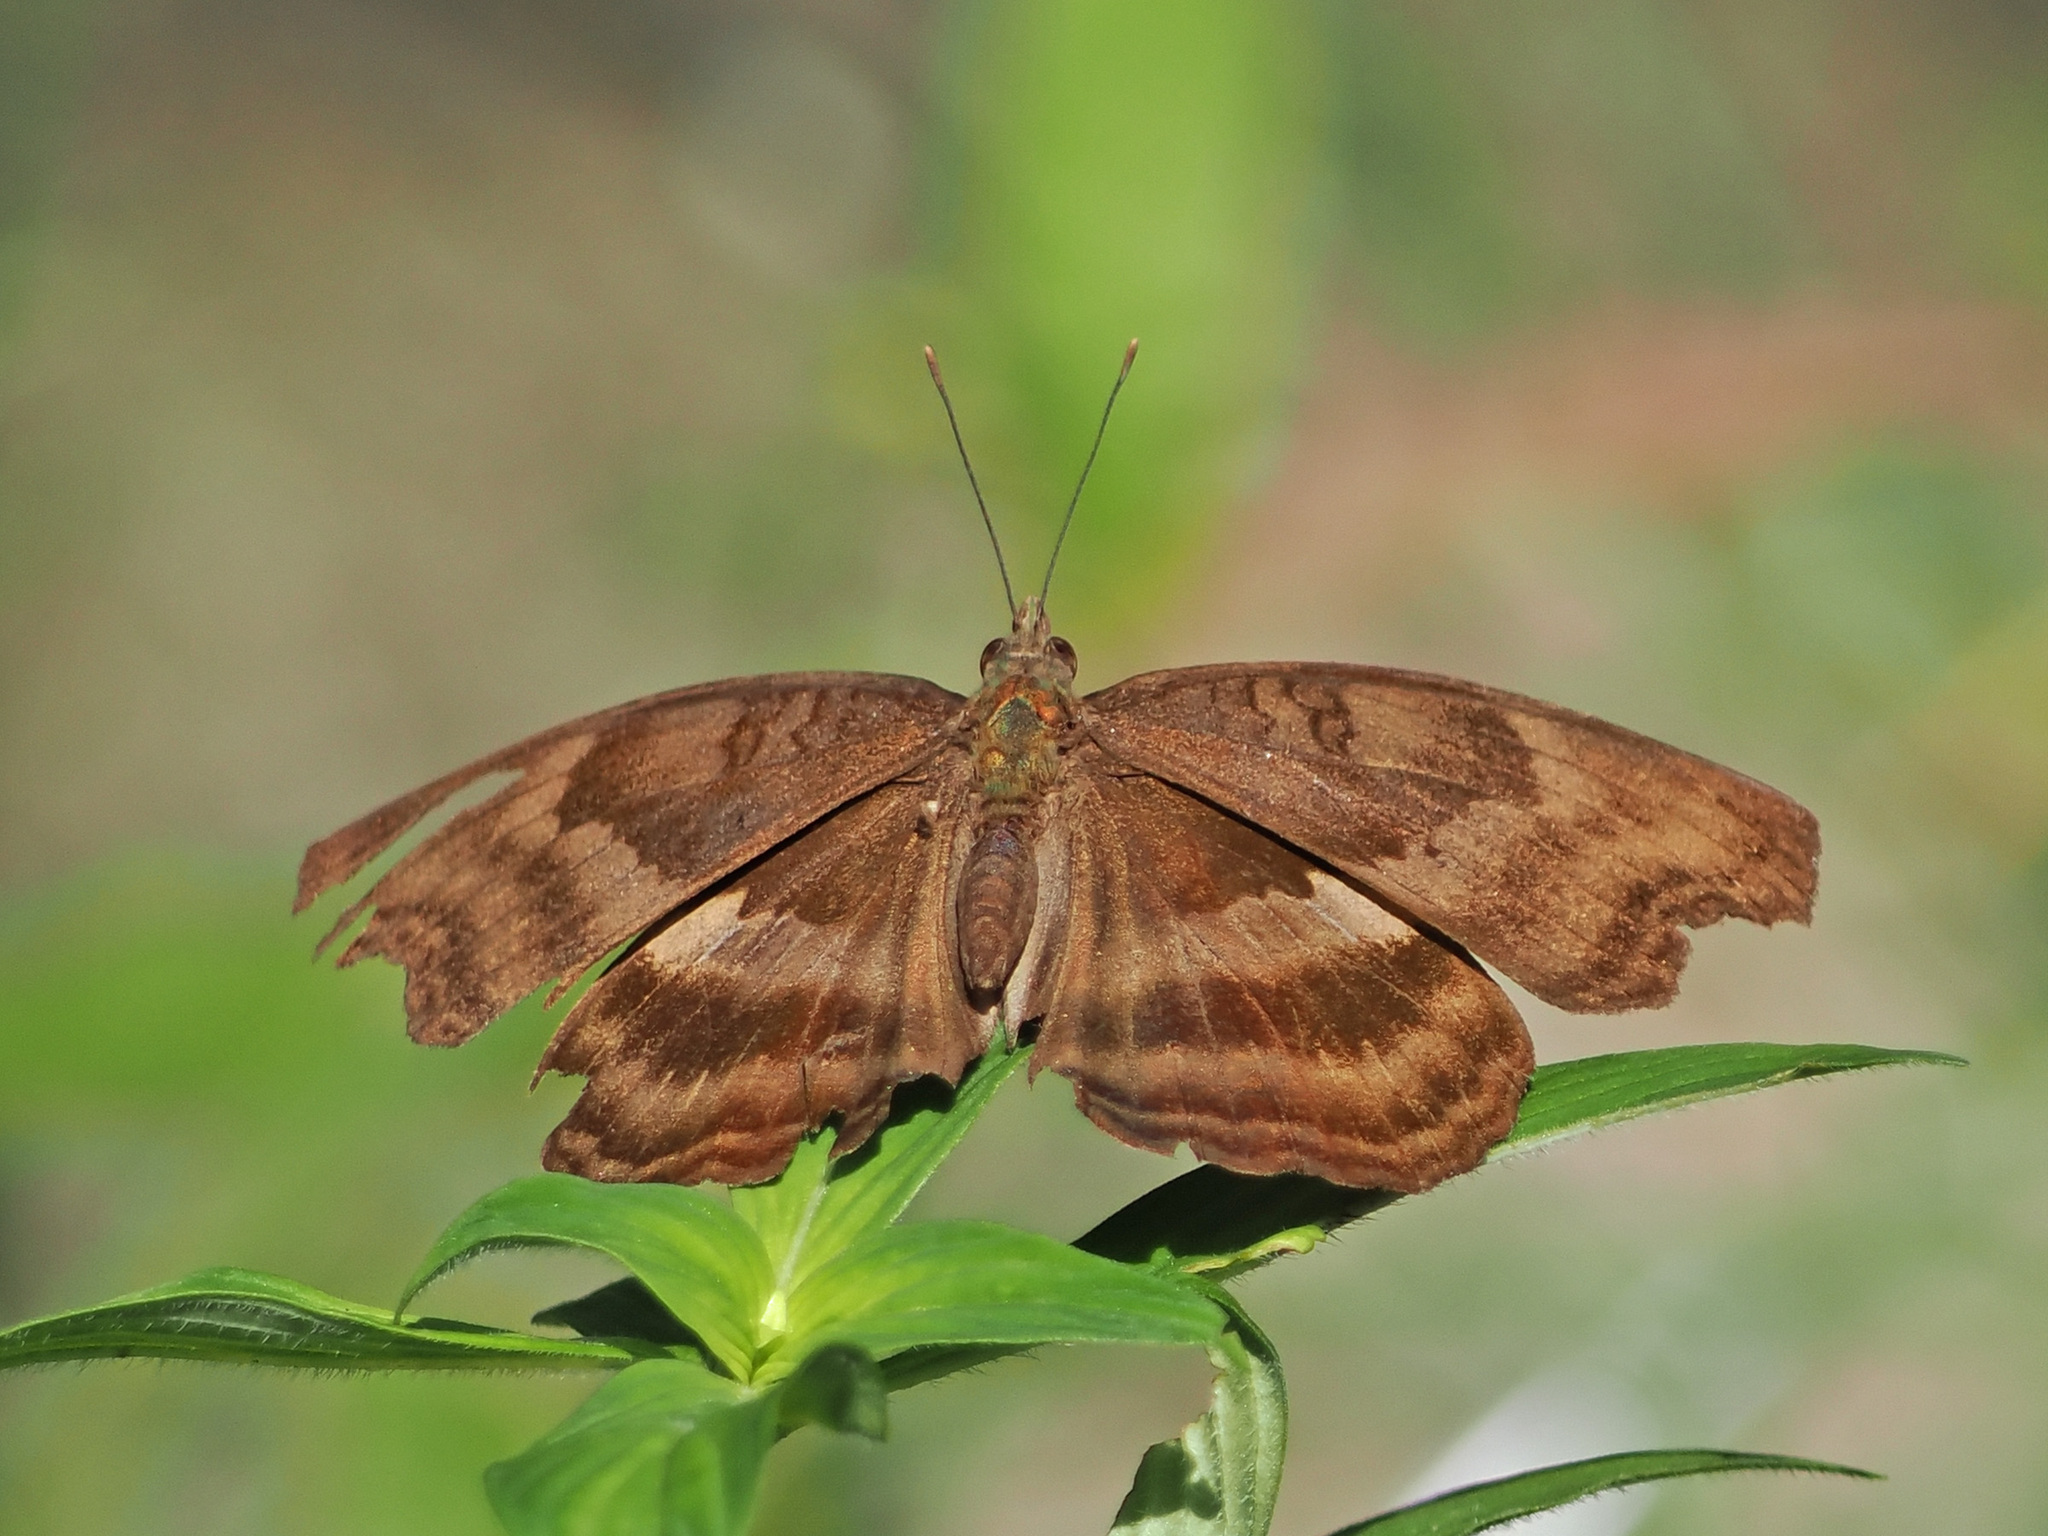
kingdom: Animalia
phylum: Arthropoda
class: Insecta
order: Lepidoptera
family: Nymphalidae
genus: Junonia
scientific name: Junonia iphita
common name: Chocolate pansy
